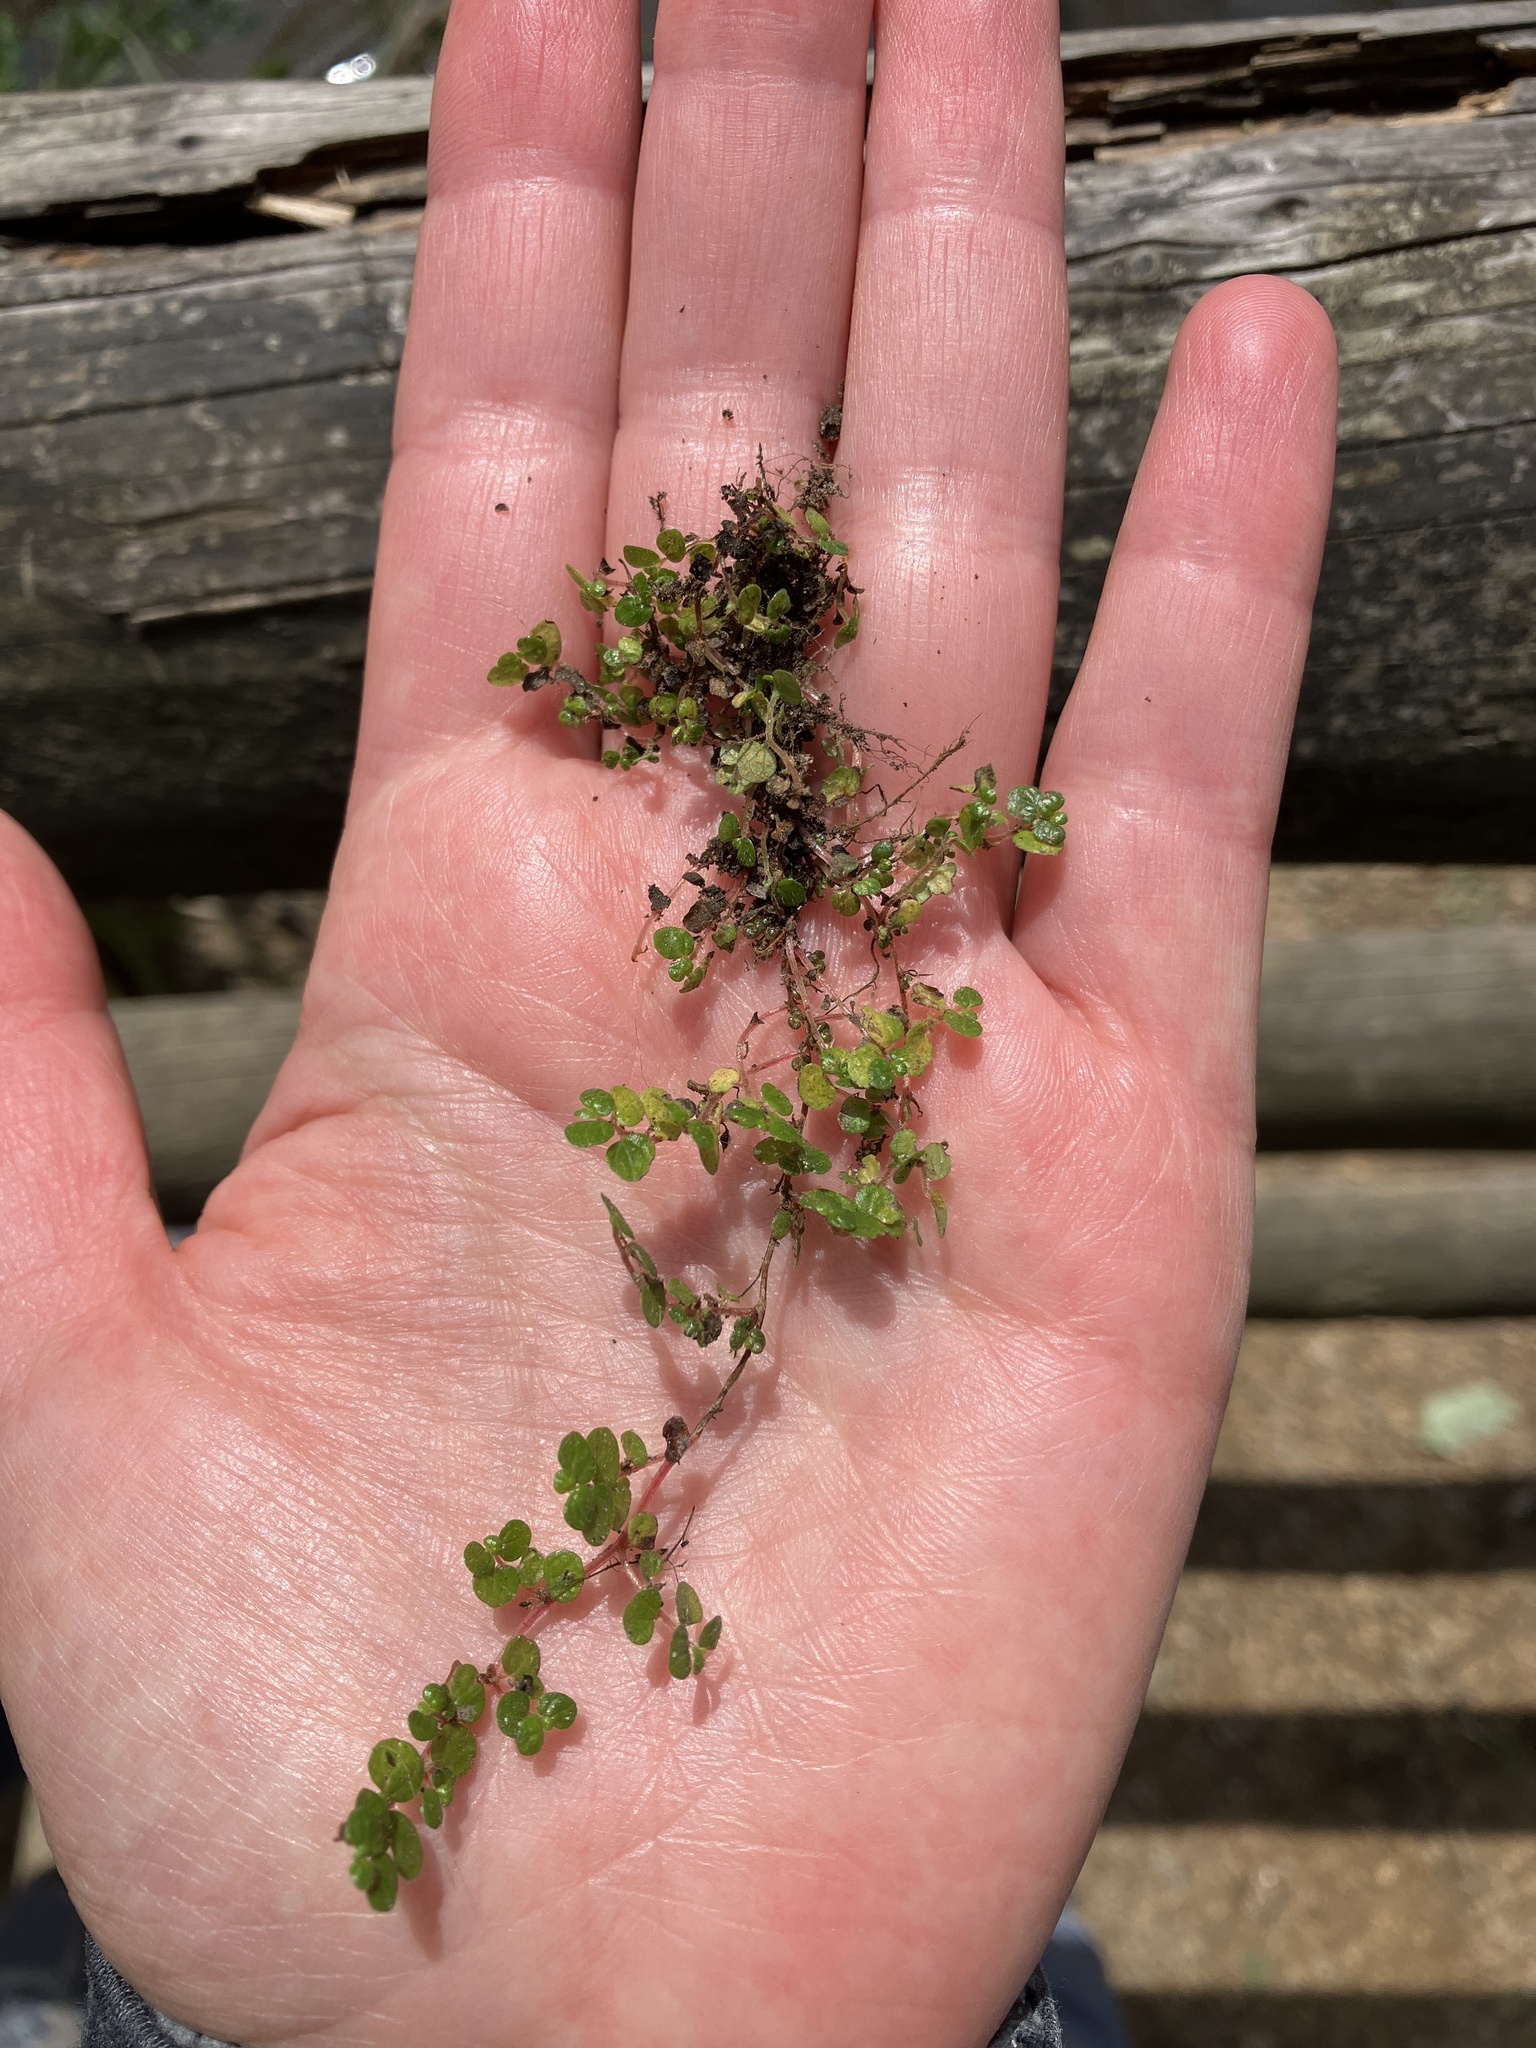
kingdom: Plantae
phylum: Tracheophyta
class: Magnoliopsida
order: Rosales
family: Urticaceae
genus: Soleirolia
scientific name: Soleirolia soleirolii
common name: Mind-your-own-business
